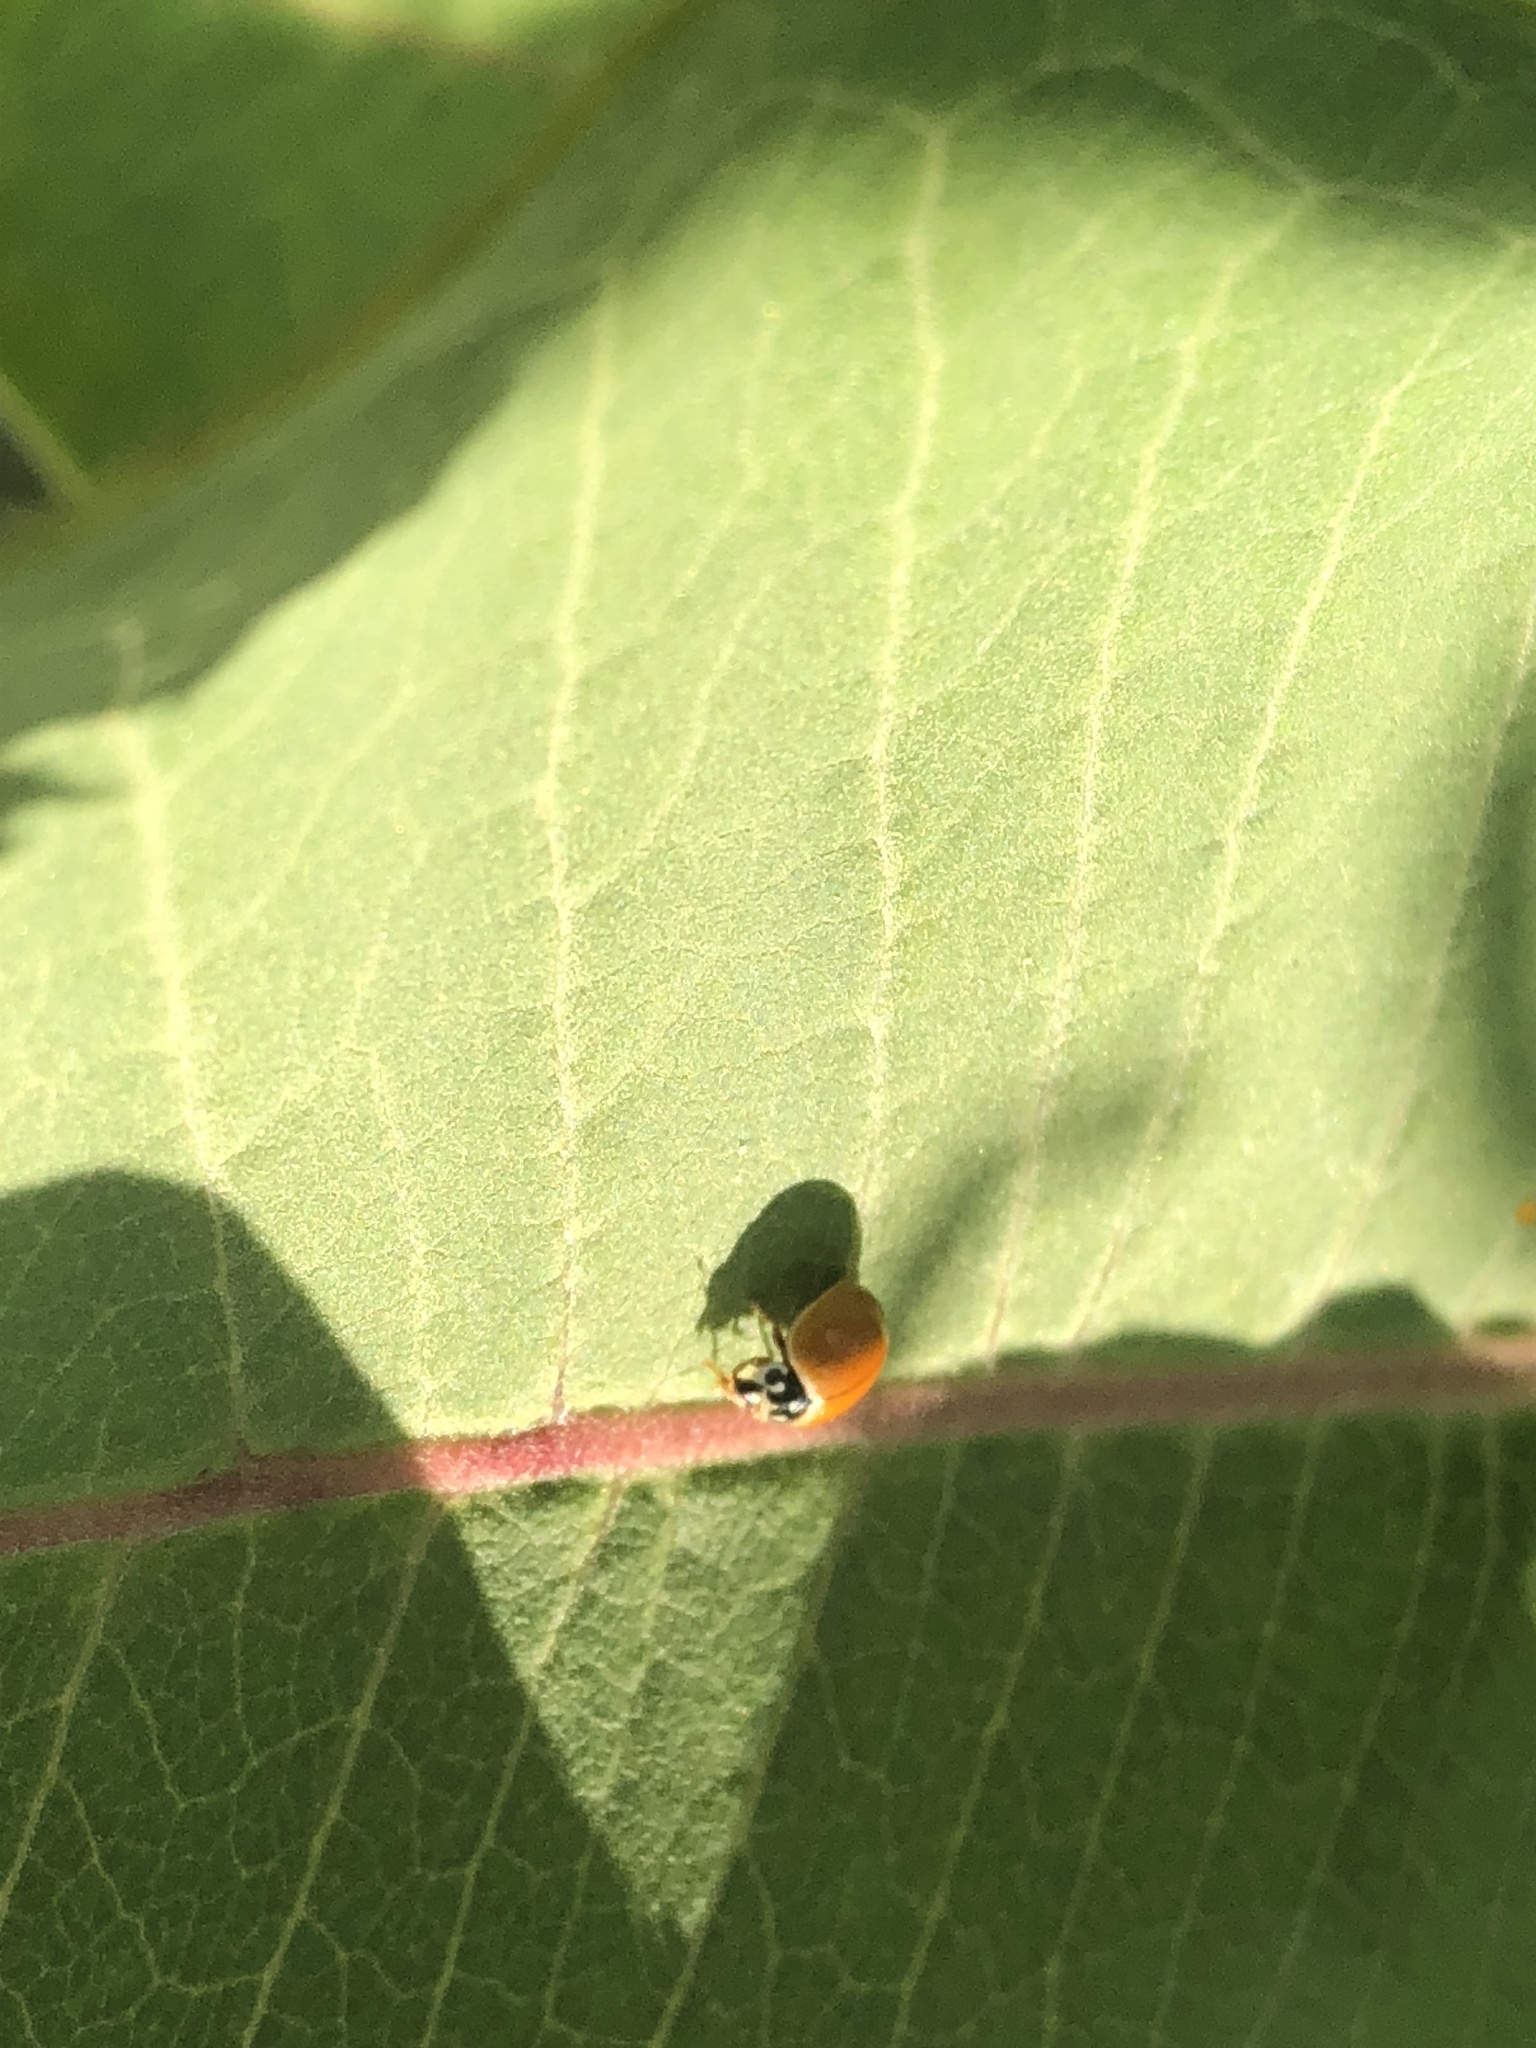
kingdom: Animalia
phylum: Arthropoda
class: Insecta
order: Coleoptera
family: Coccinellidae
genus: Cycloneda
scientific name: Cycloneda munda
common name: Polished lady beetle
